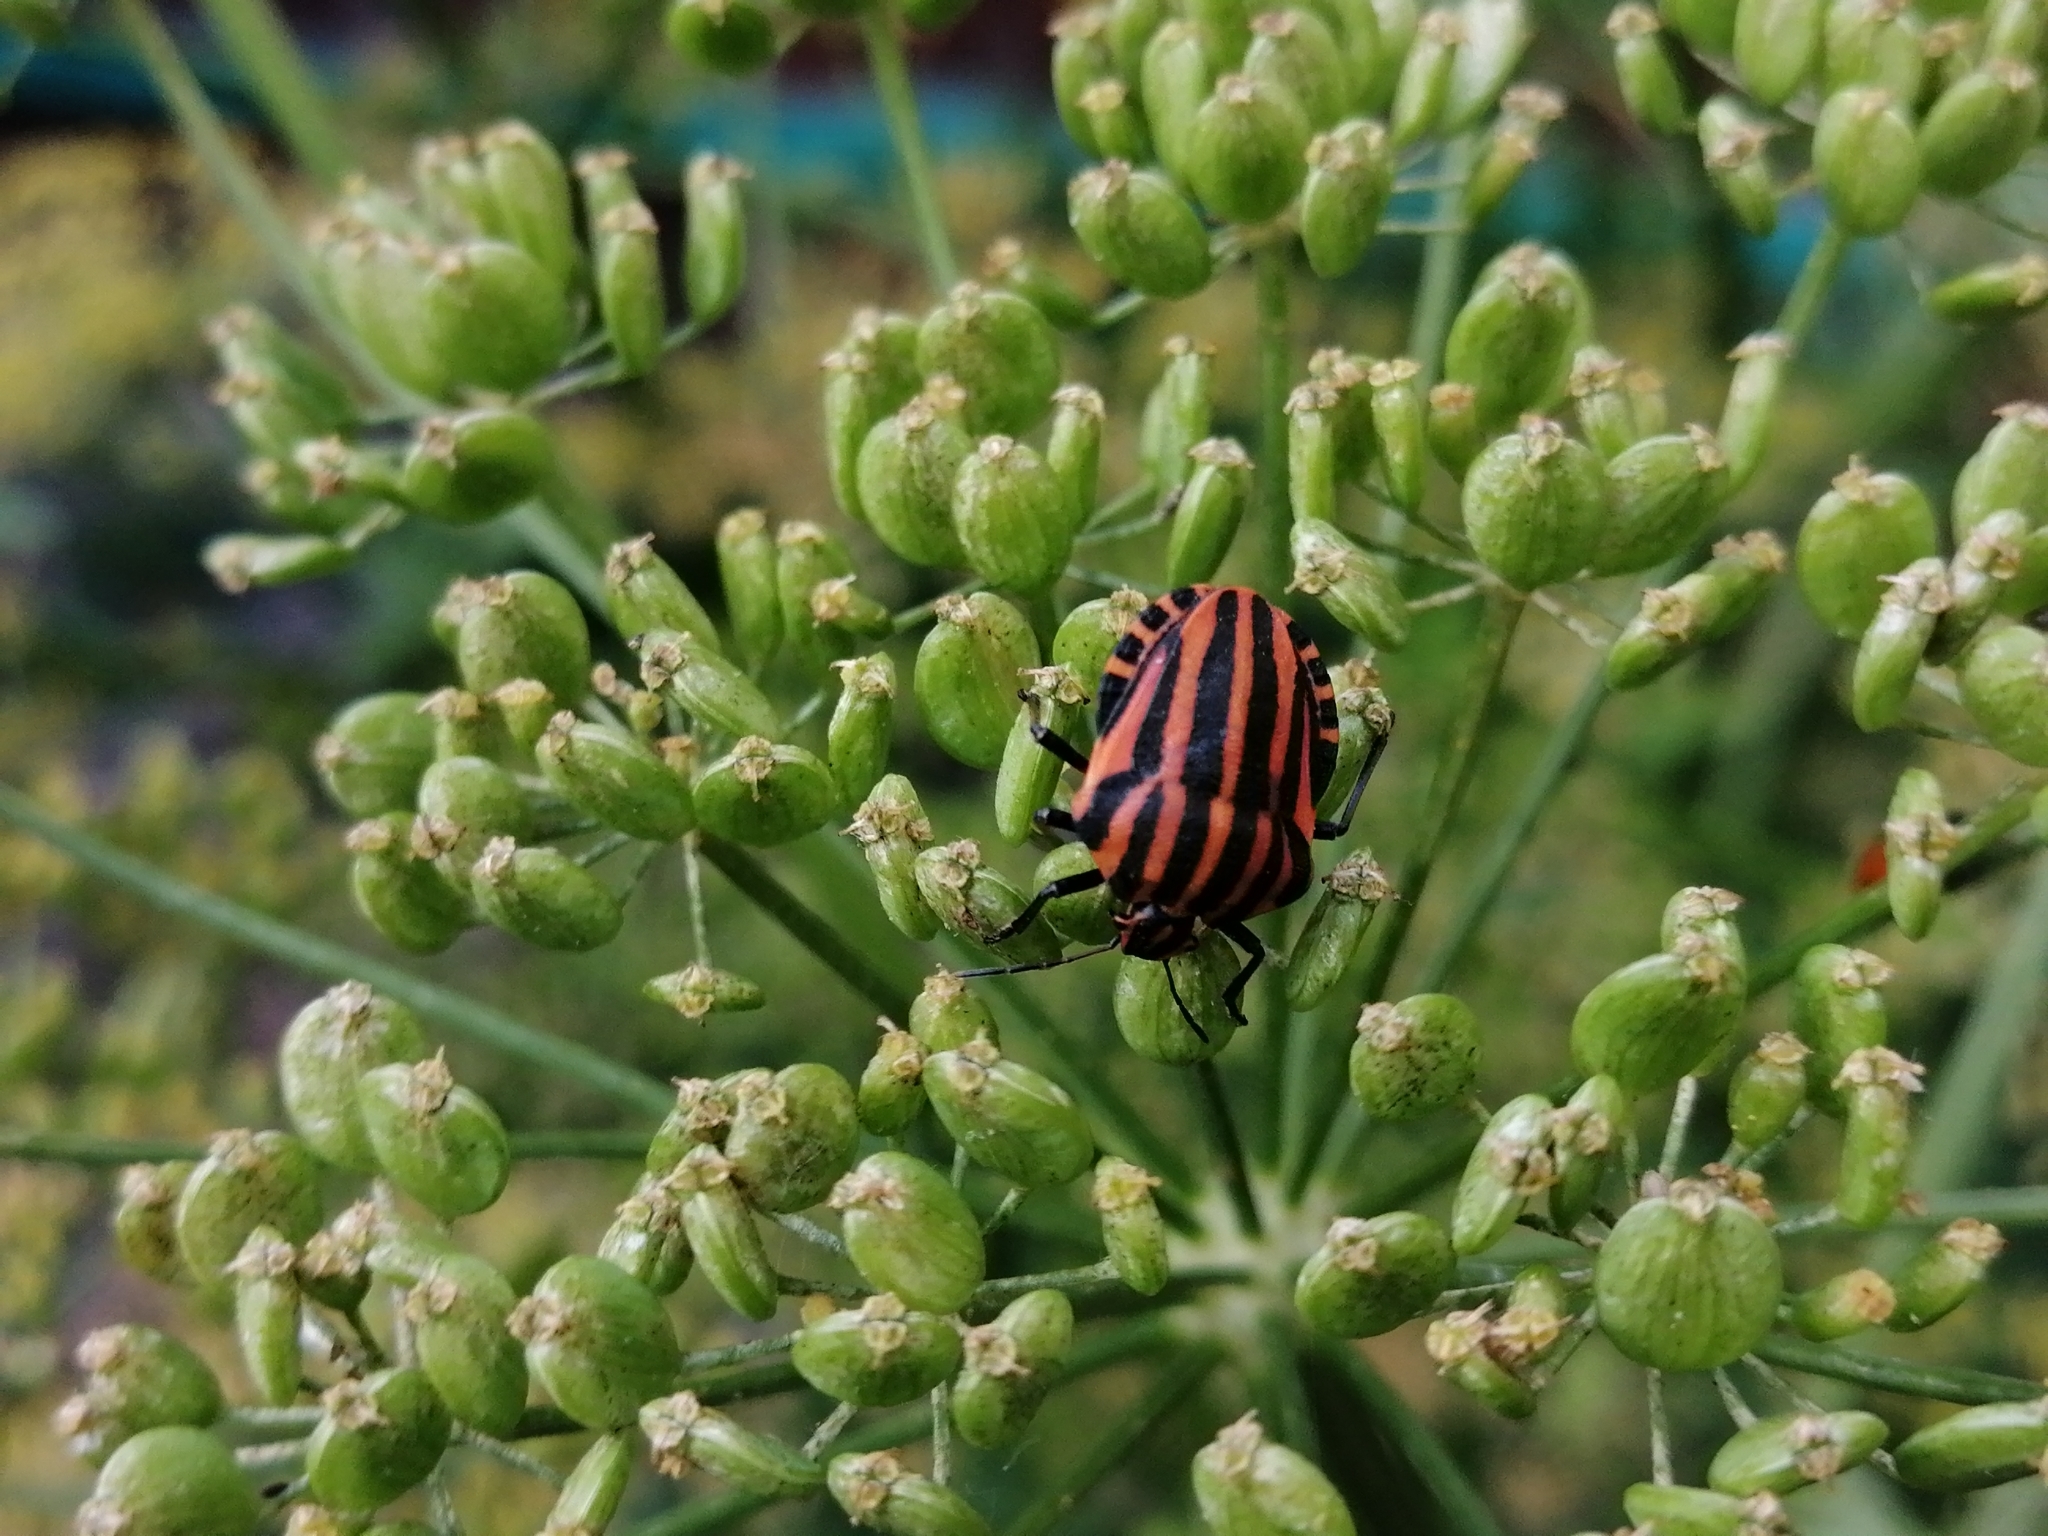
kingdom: Animalia
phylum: Arthropoda
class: Insecta
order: Hemiptera
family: Pentatomidae
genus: Graphosoma
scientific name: Graphosoma italicum
